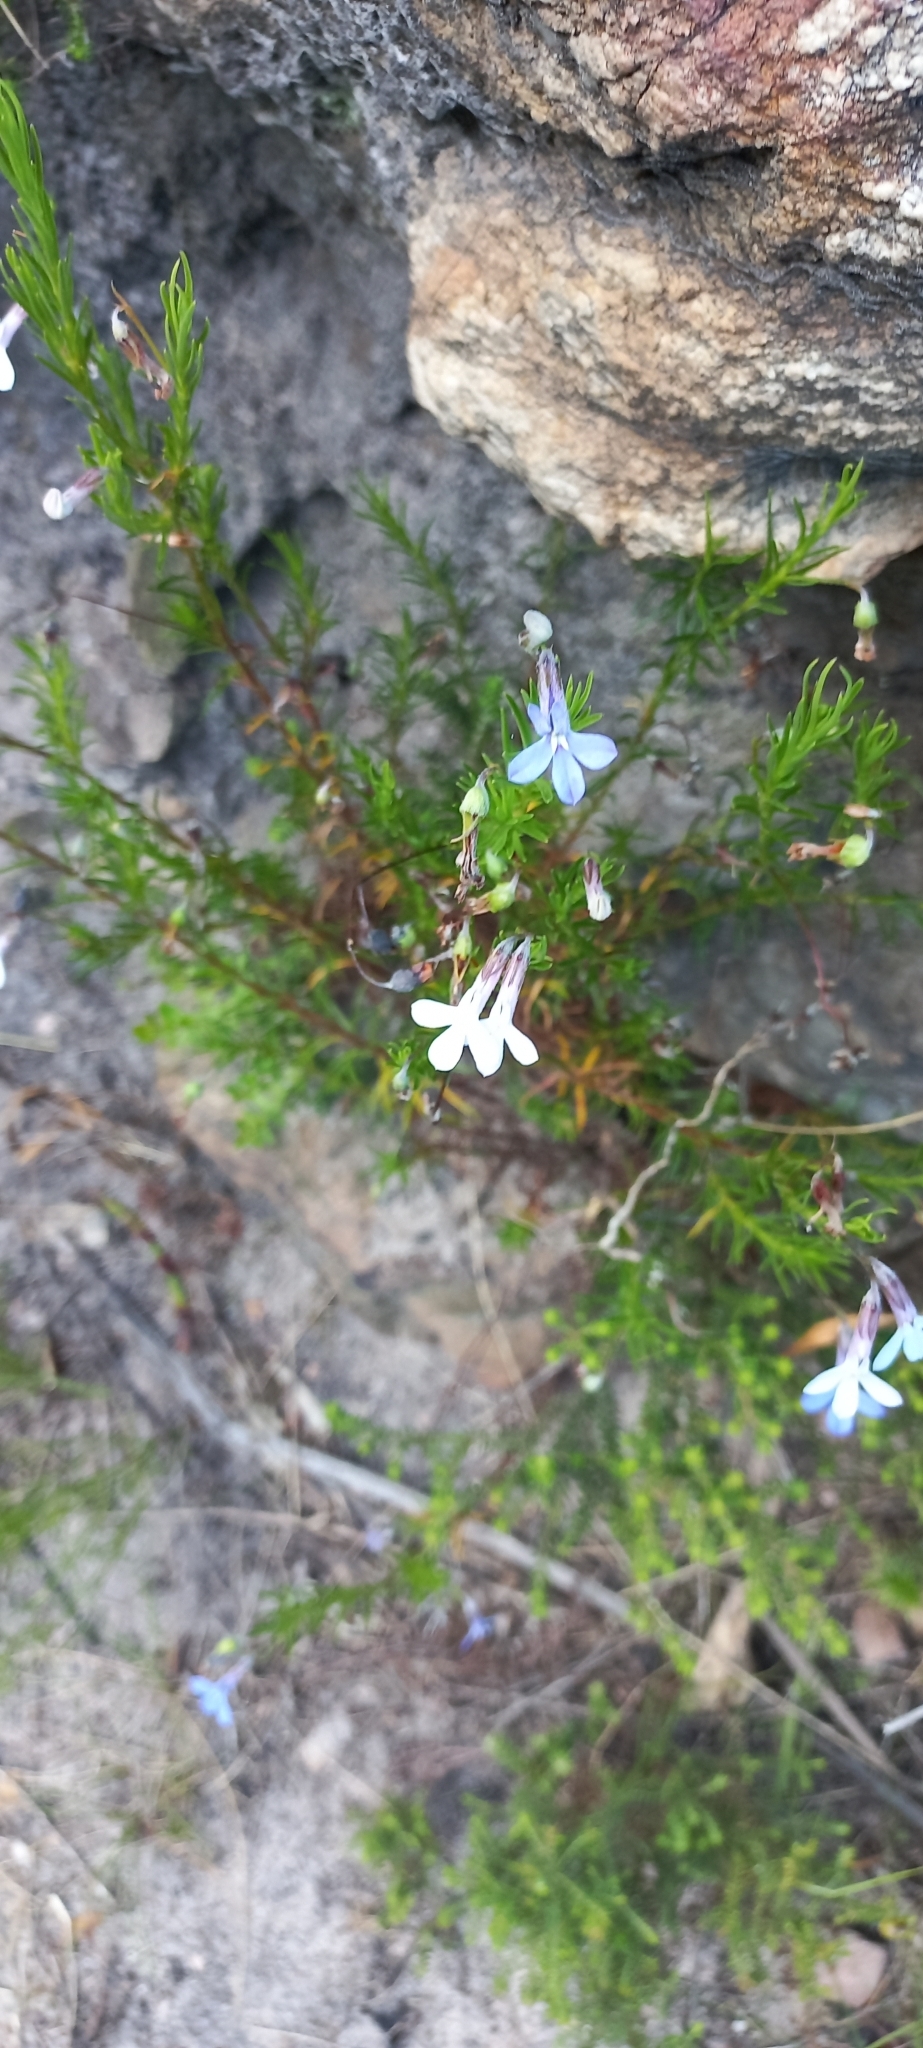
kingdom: Plantae
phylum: Tracheophyta
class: Magnoliopsida
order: Asterales
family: Campanulaceae
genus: Lobelia
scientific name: Lobelia pinifolia
